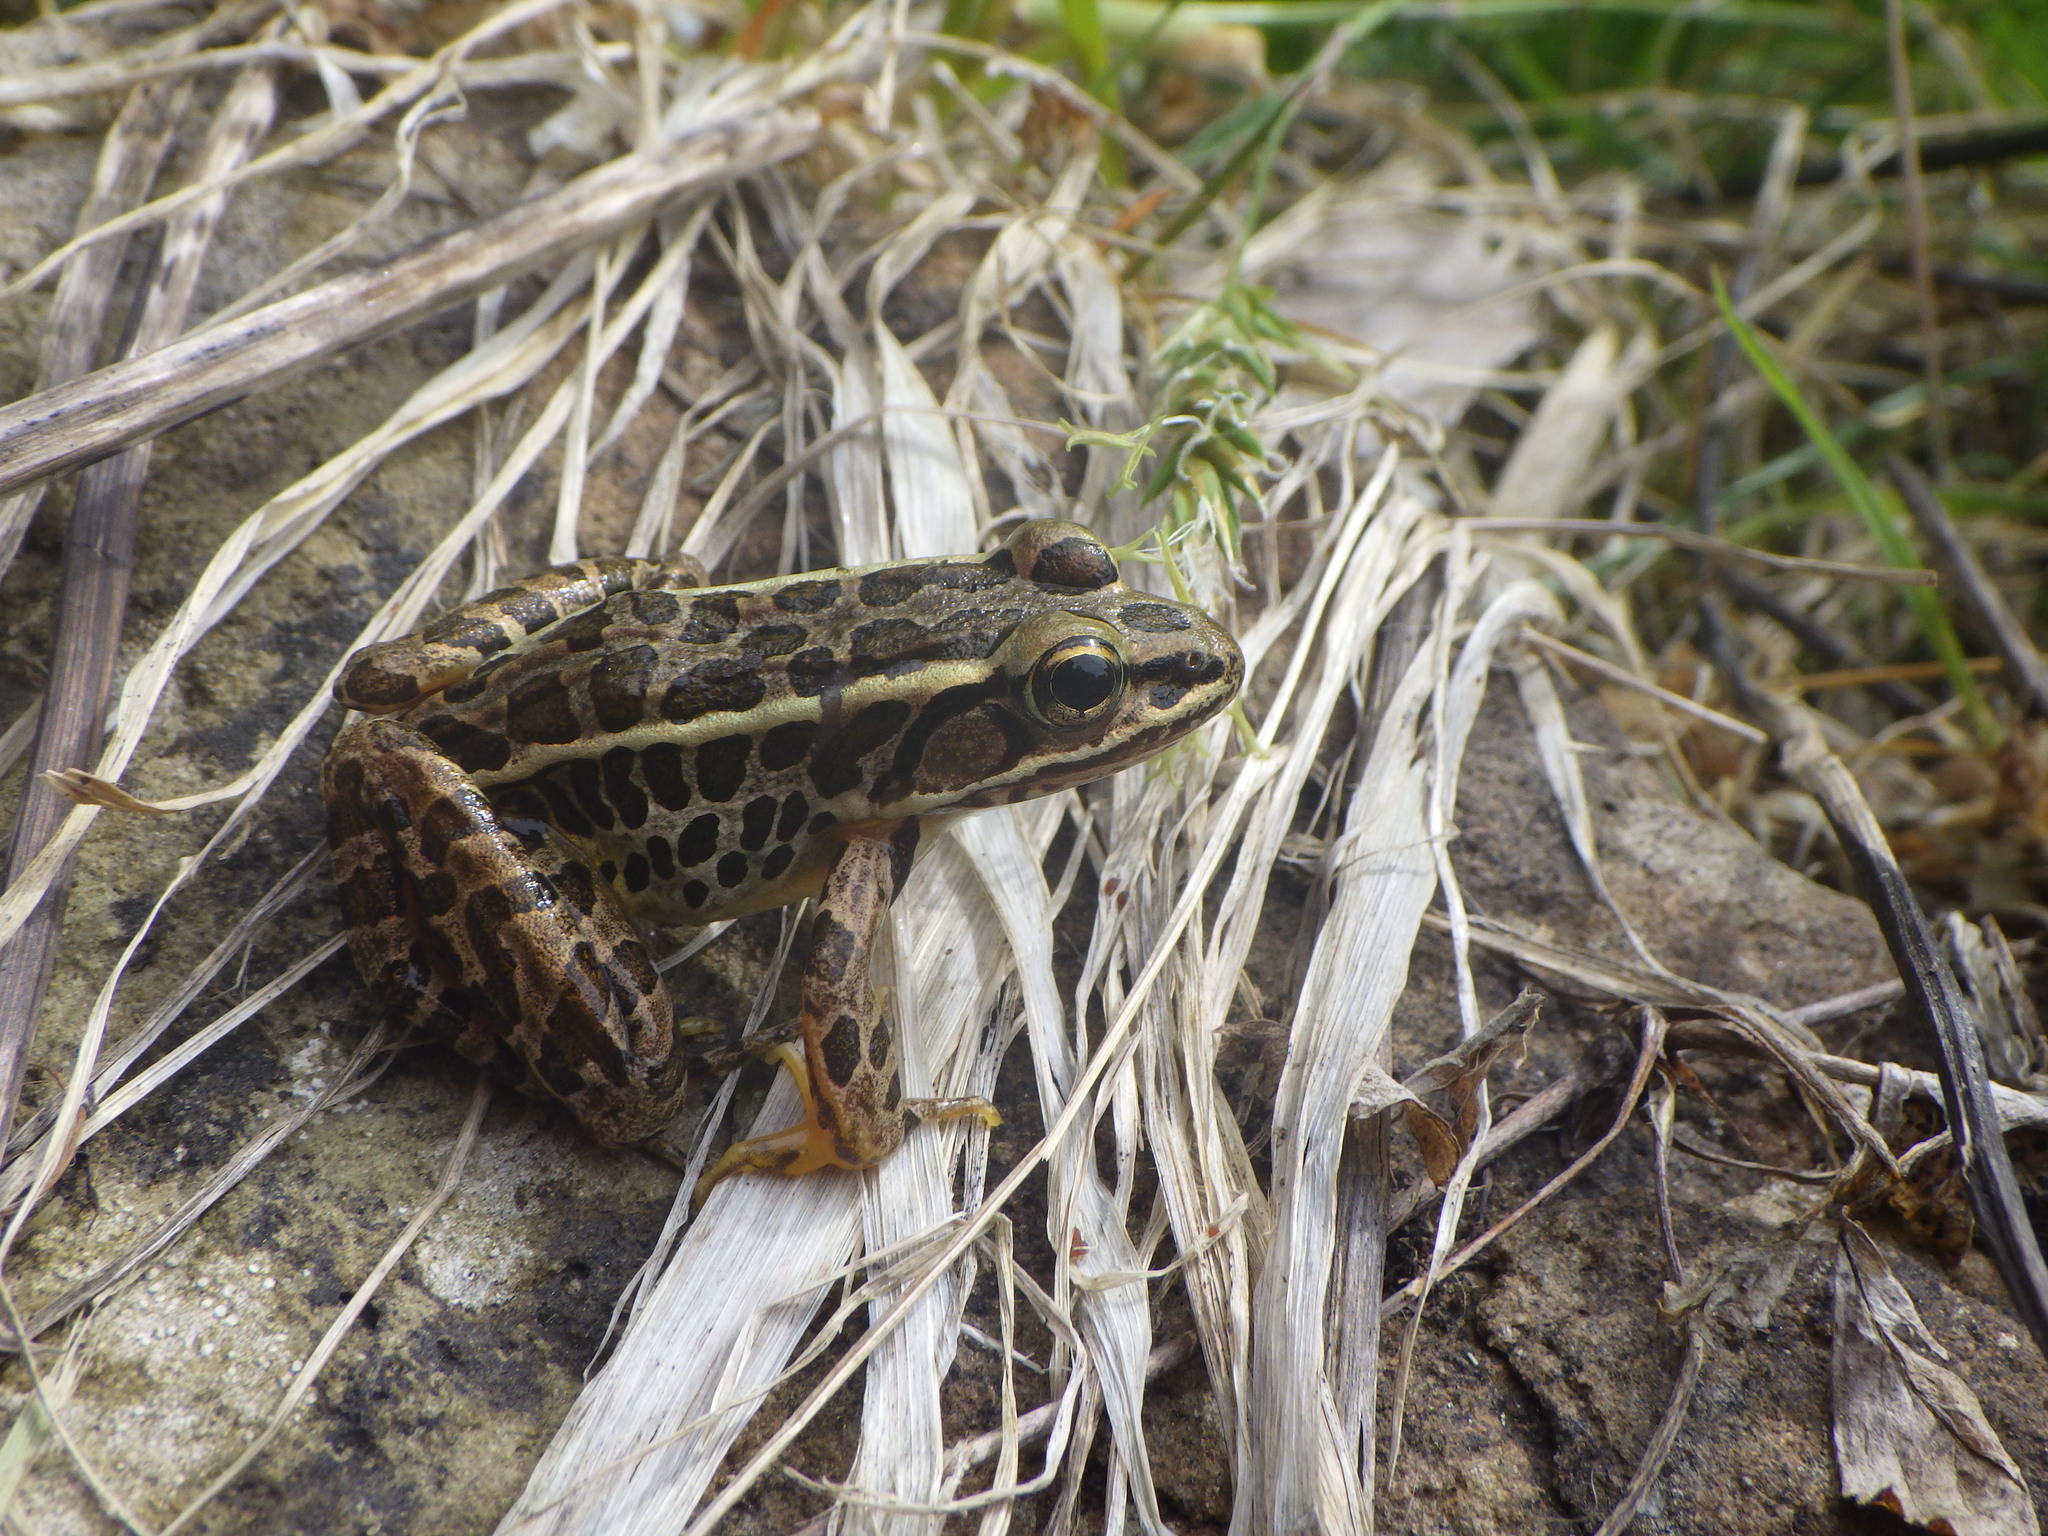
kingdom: Animalia
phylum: Chordata
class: Amphibia
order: Anura
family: Ranidae
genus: Lithobates
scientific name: Lithobates palustris
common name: Pickerel frog
